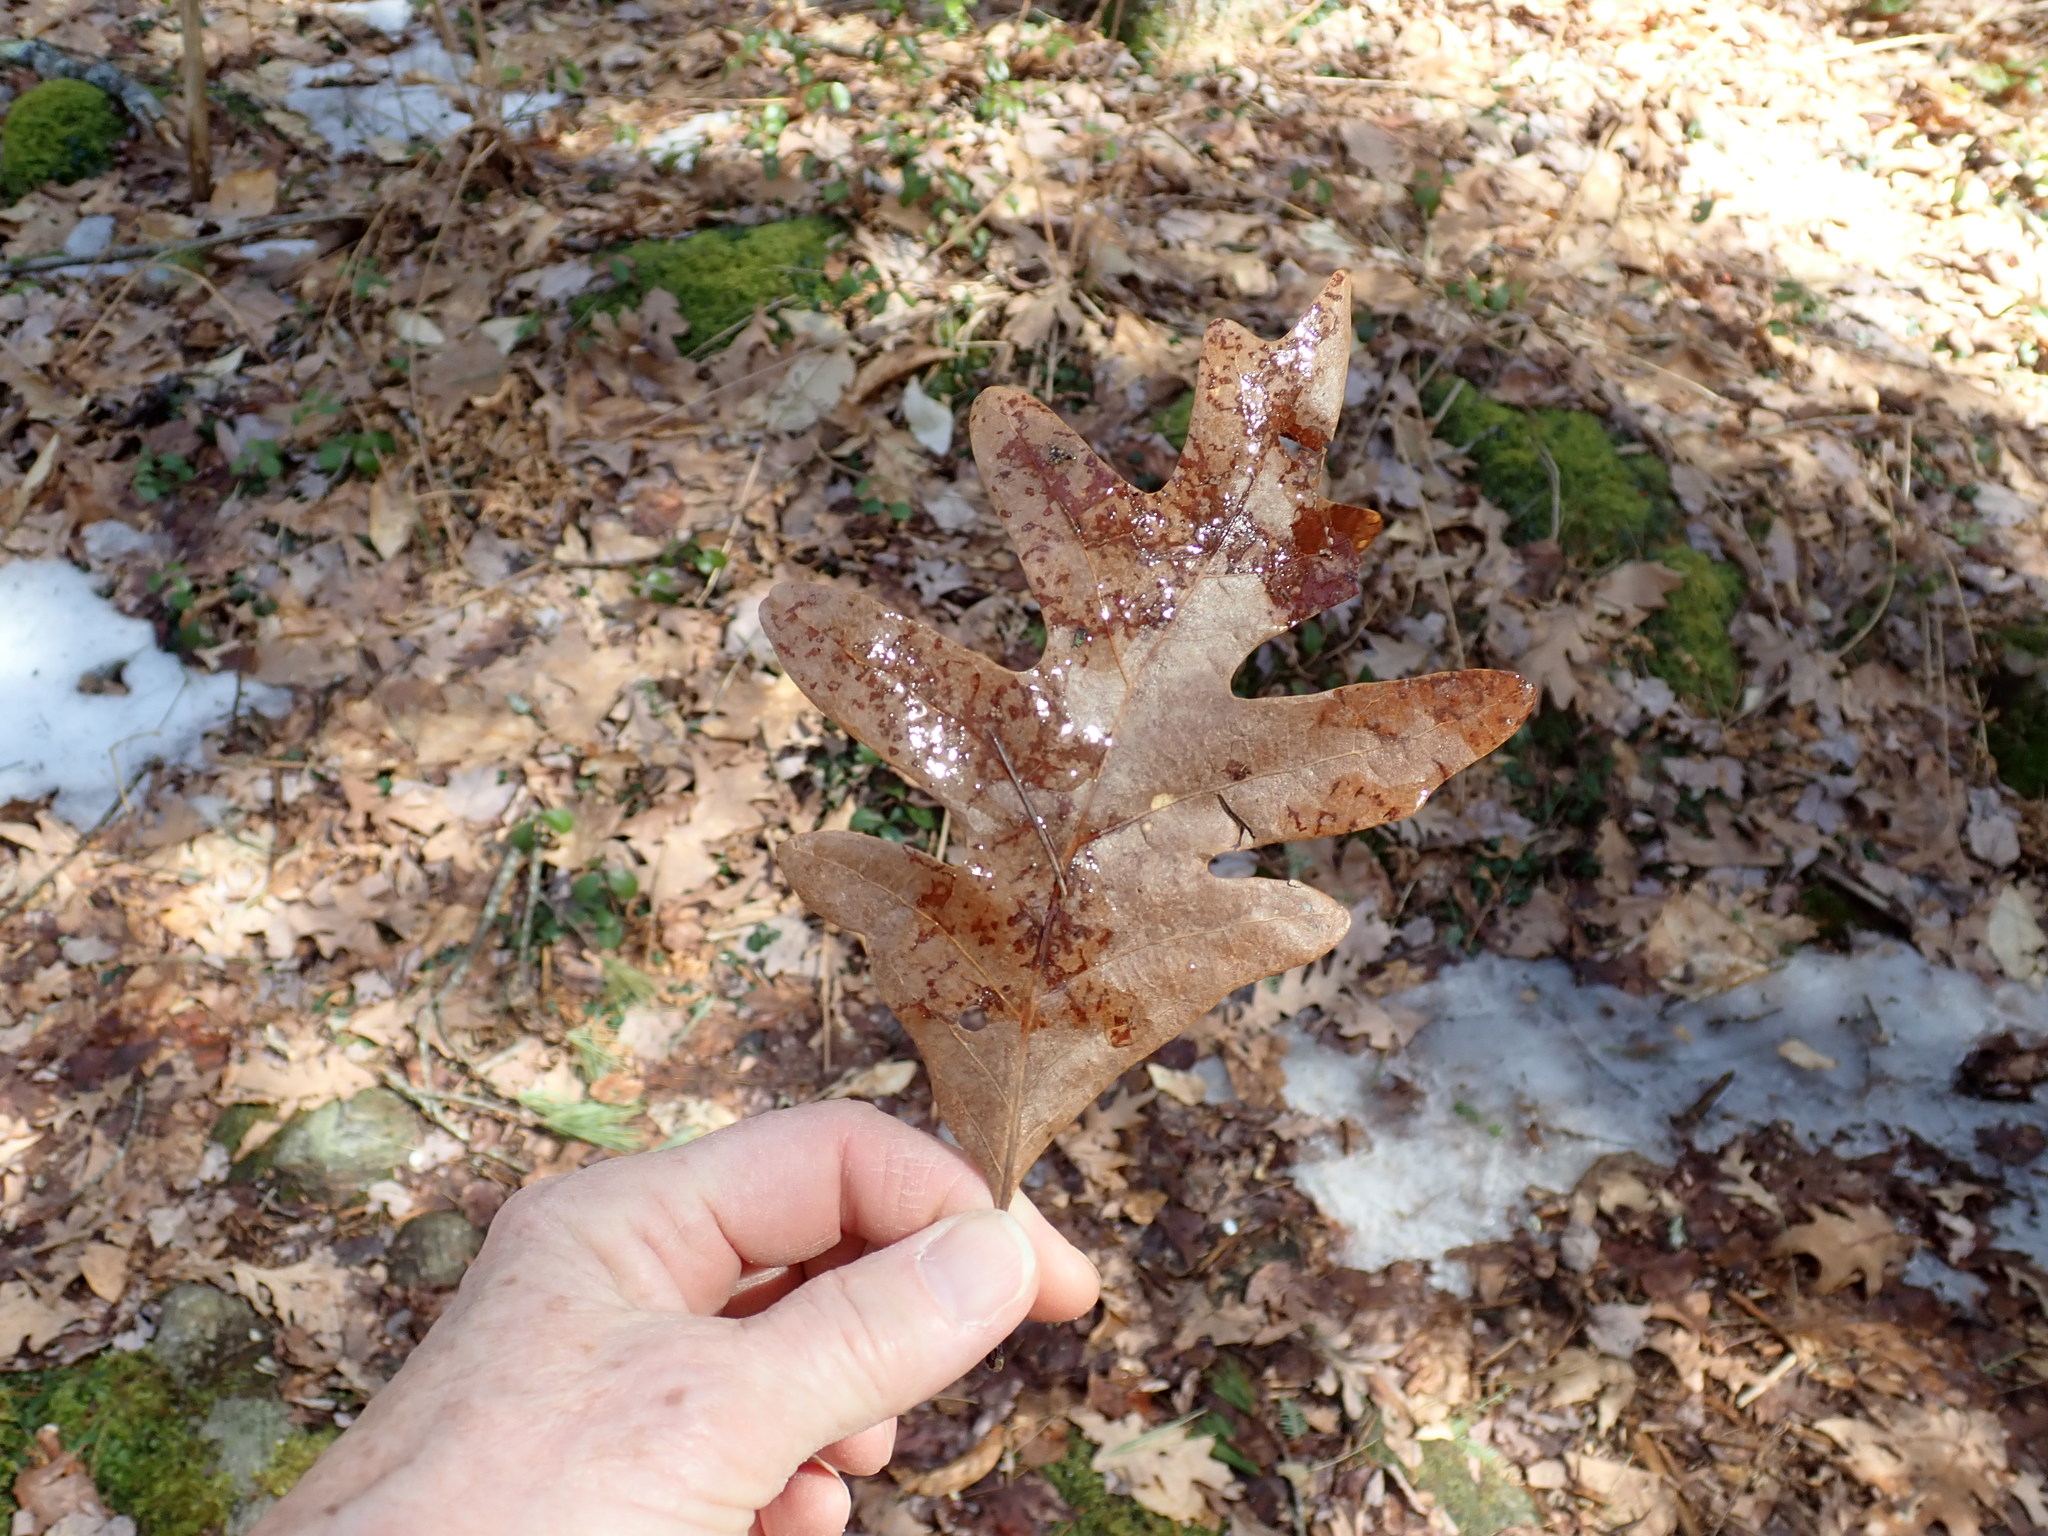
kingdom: Plantae
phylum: Tracheophyta
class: Magnoliopsida
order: Fagales
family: Fagaceae
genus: Quercus
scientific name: Quercus alba
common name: White oak
